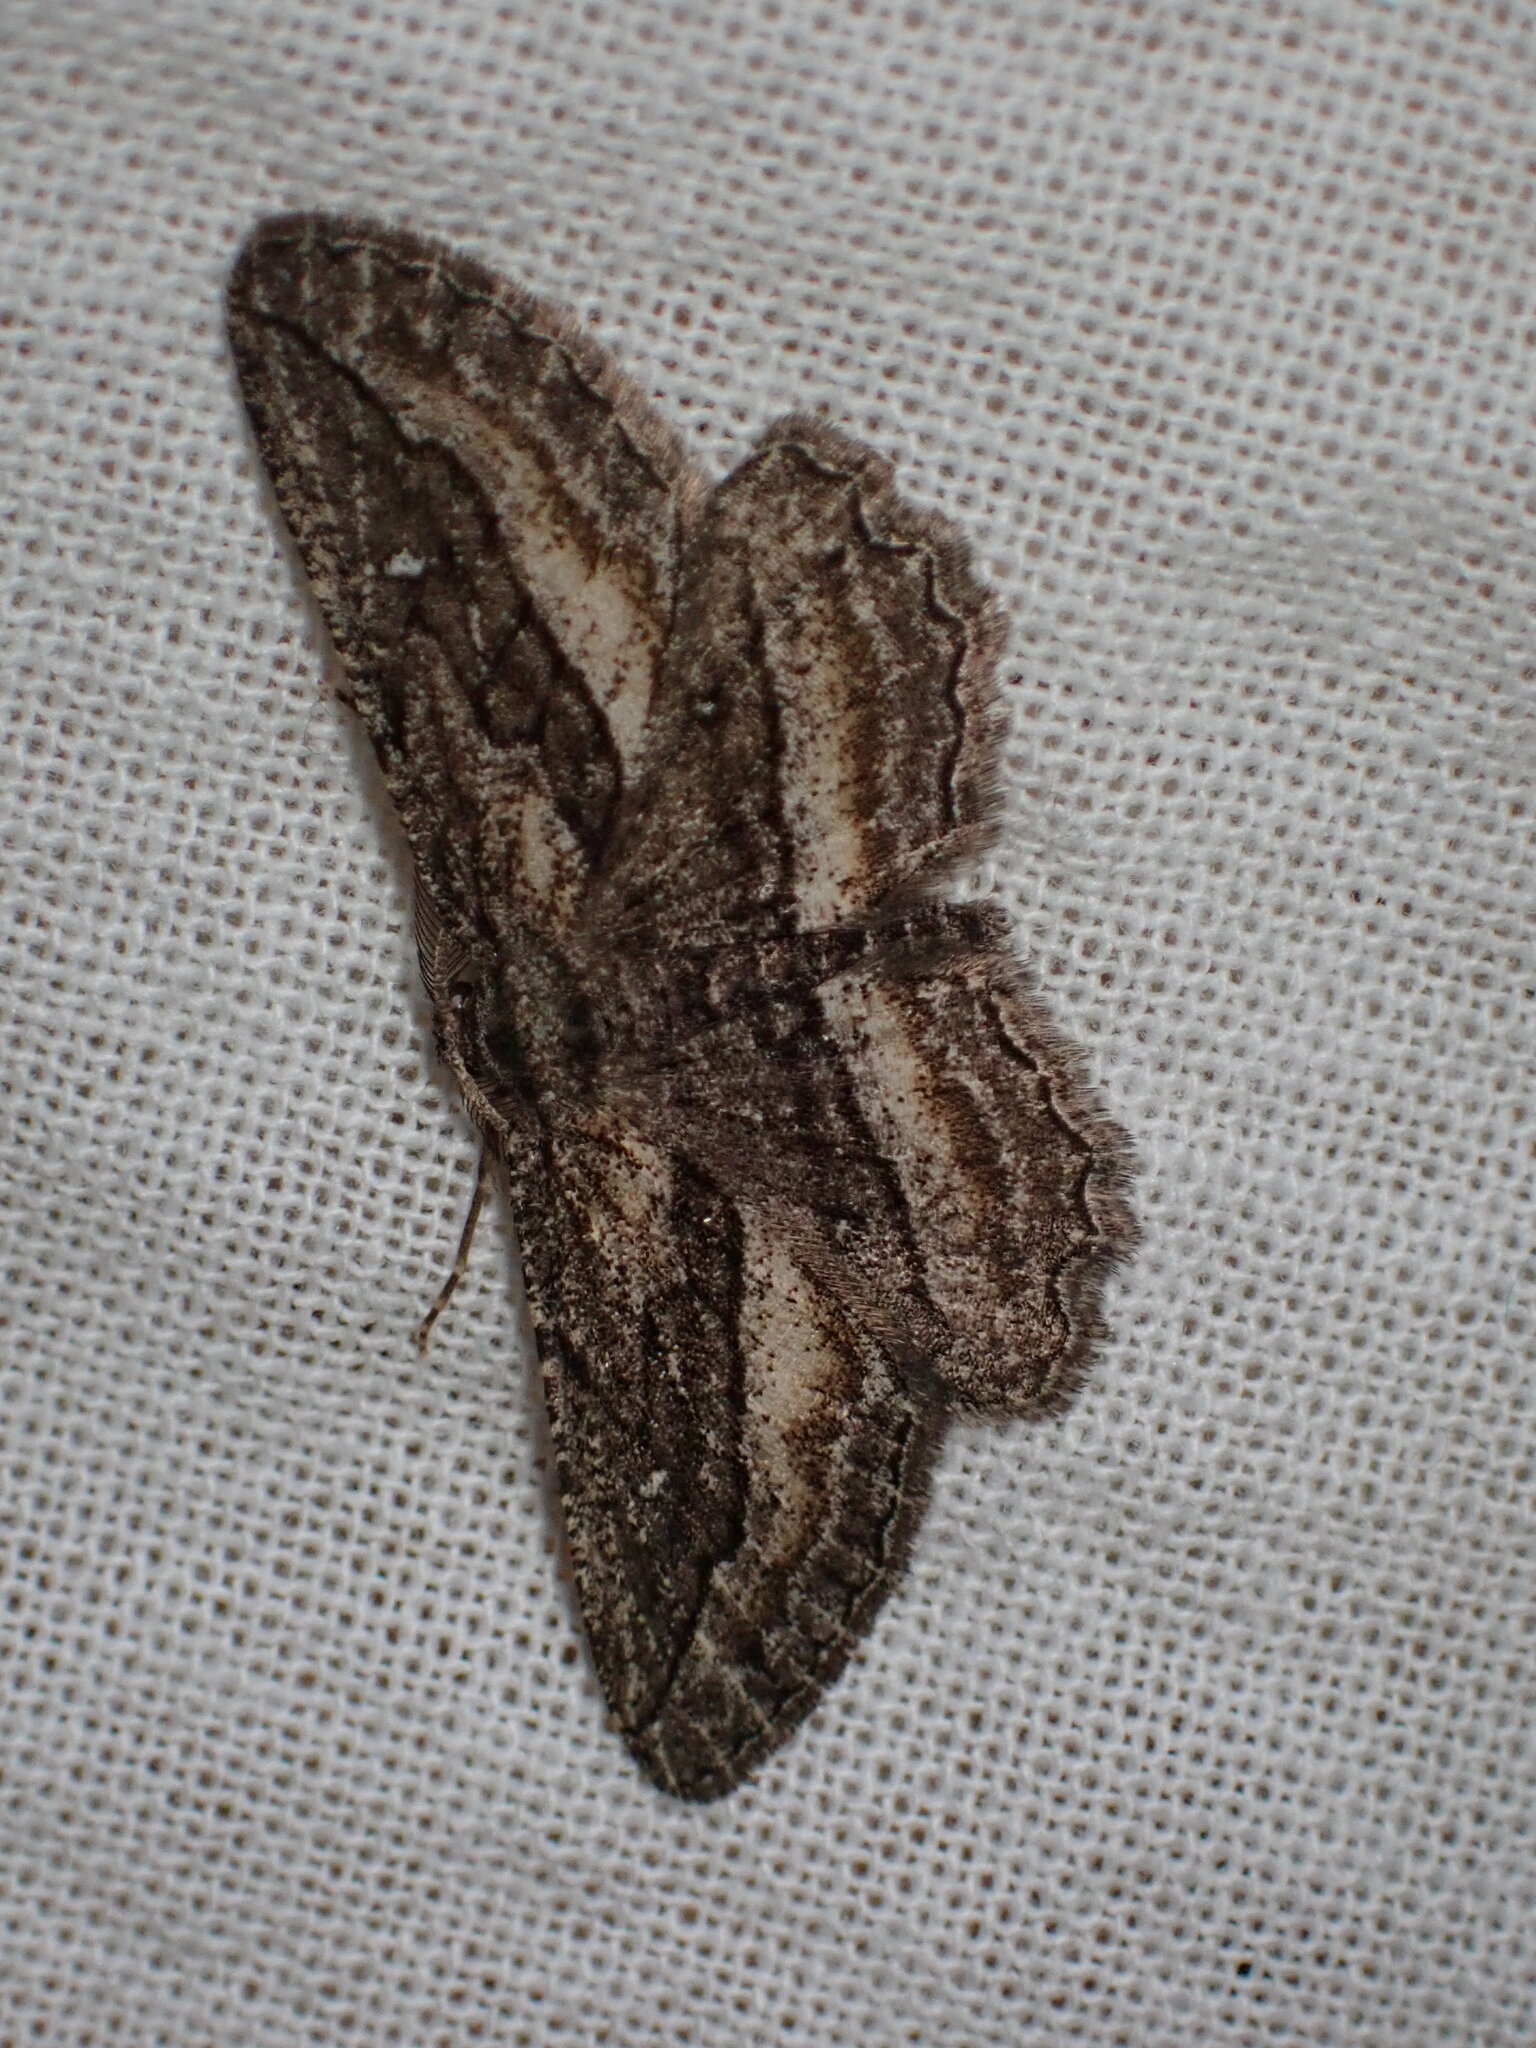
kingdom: Animalia
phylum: Arthropoda
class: Insecta
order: Lepidoptera
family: Geometridae
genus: Aethaloida
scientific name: Aethaloida packardaria
